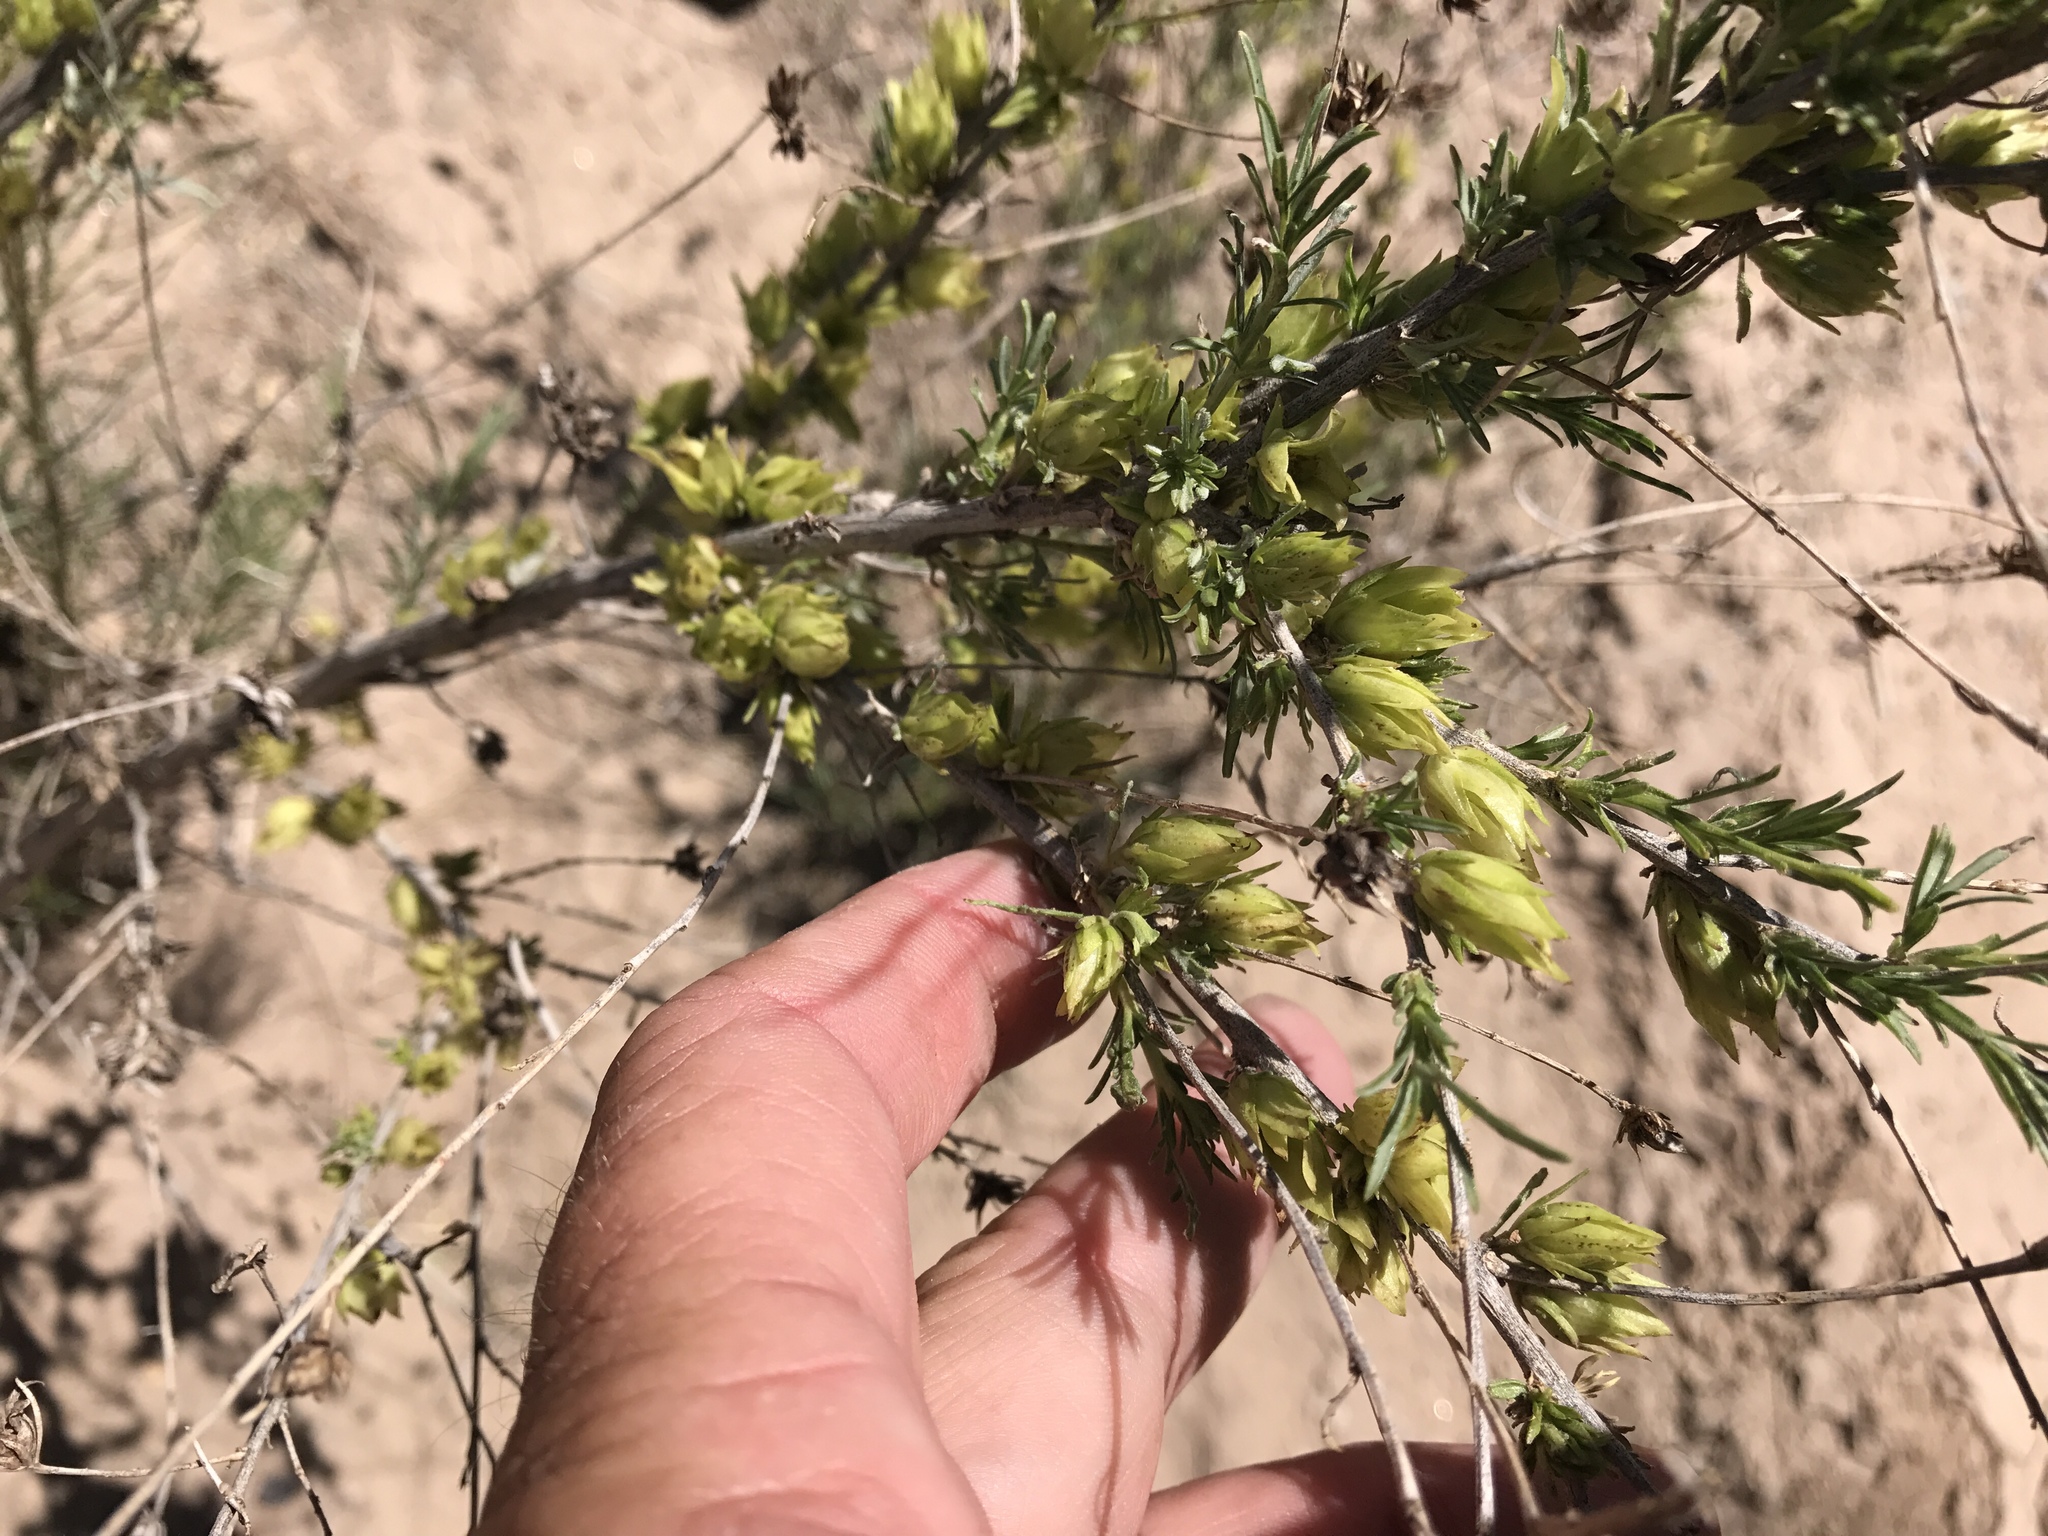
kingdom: Plantae
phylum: Tracheophyta
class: Magnoliopsida
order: Asterales
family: Asteraceae
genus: Ambrosia
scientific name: Ambrosia monogyra
